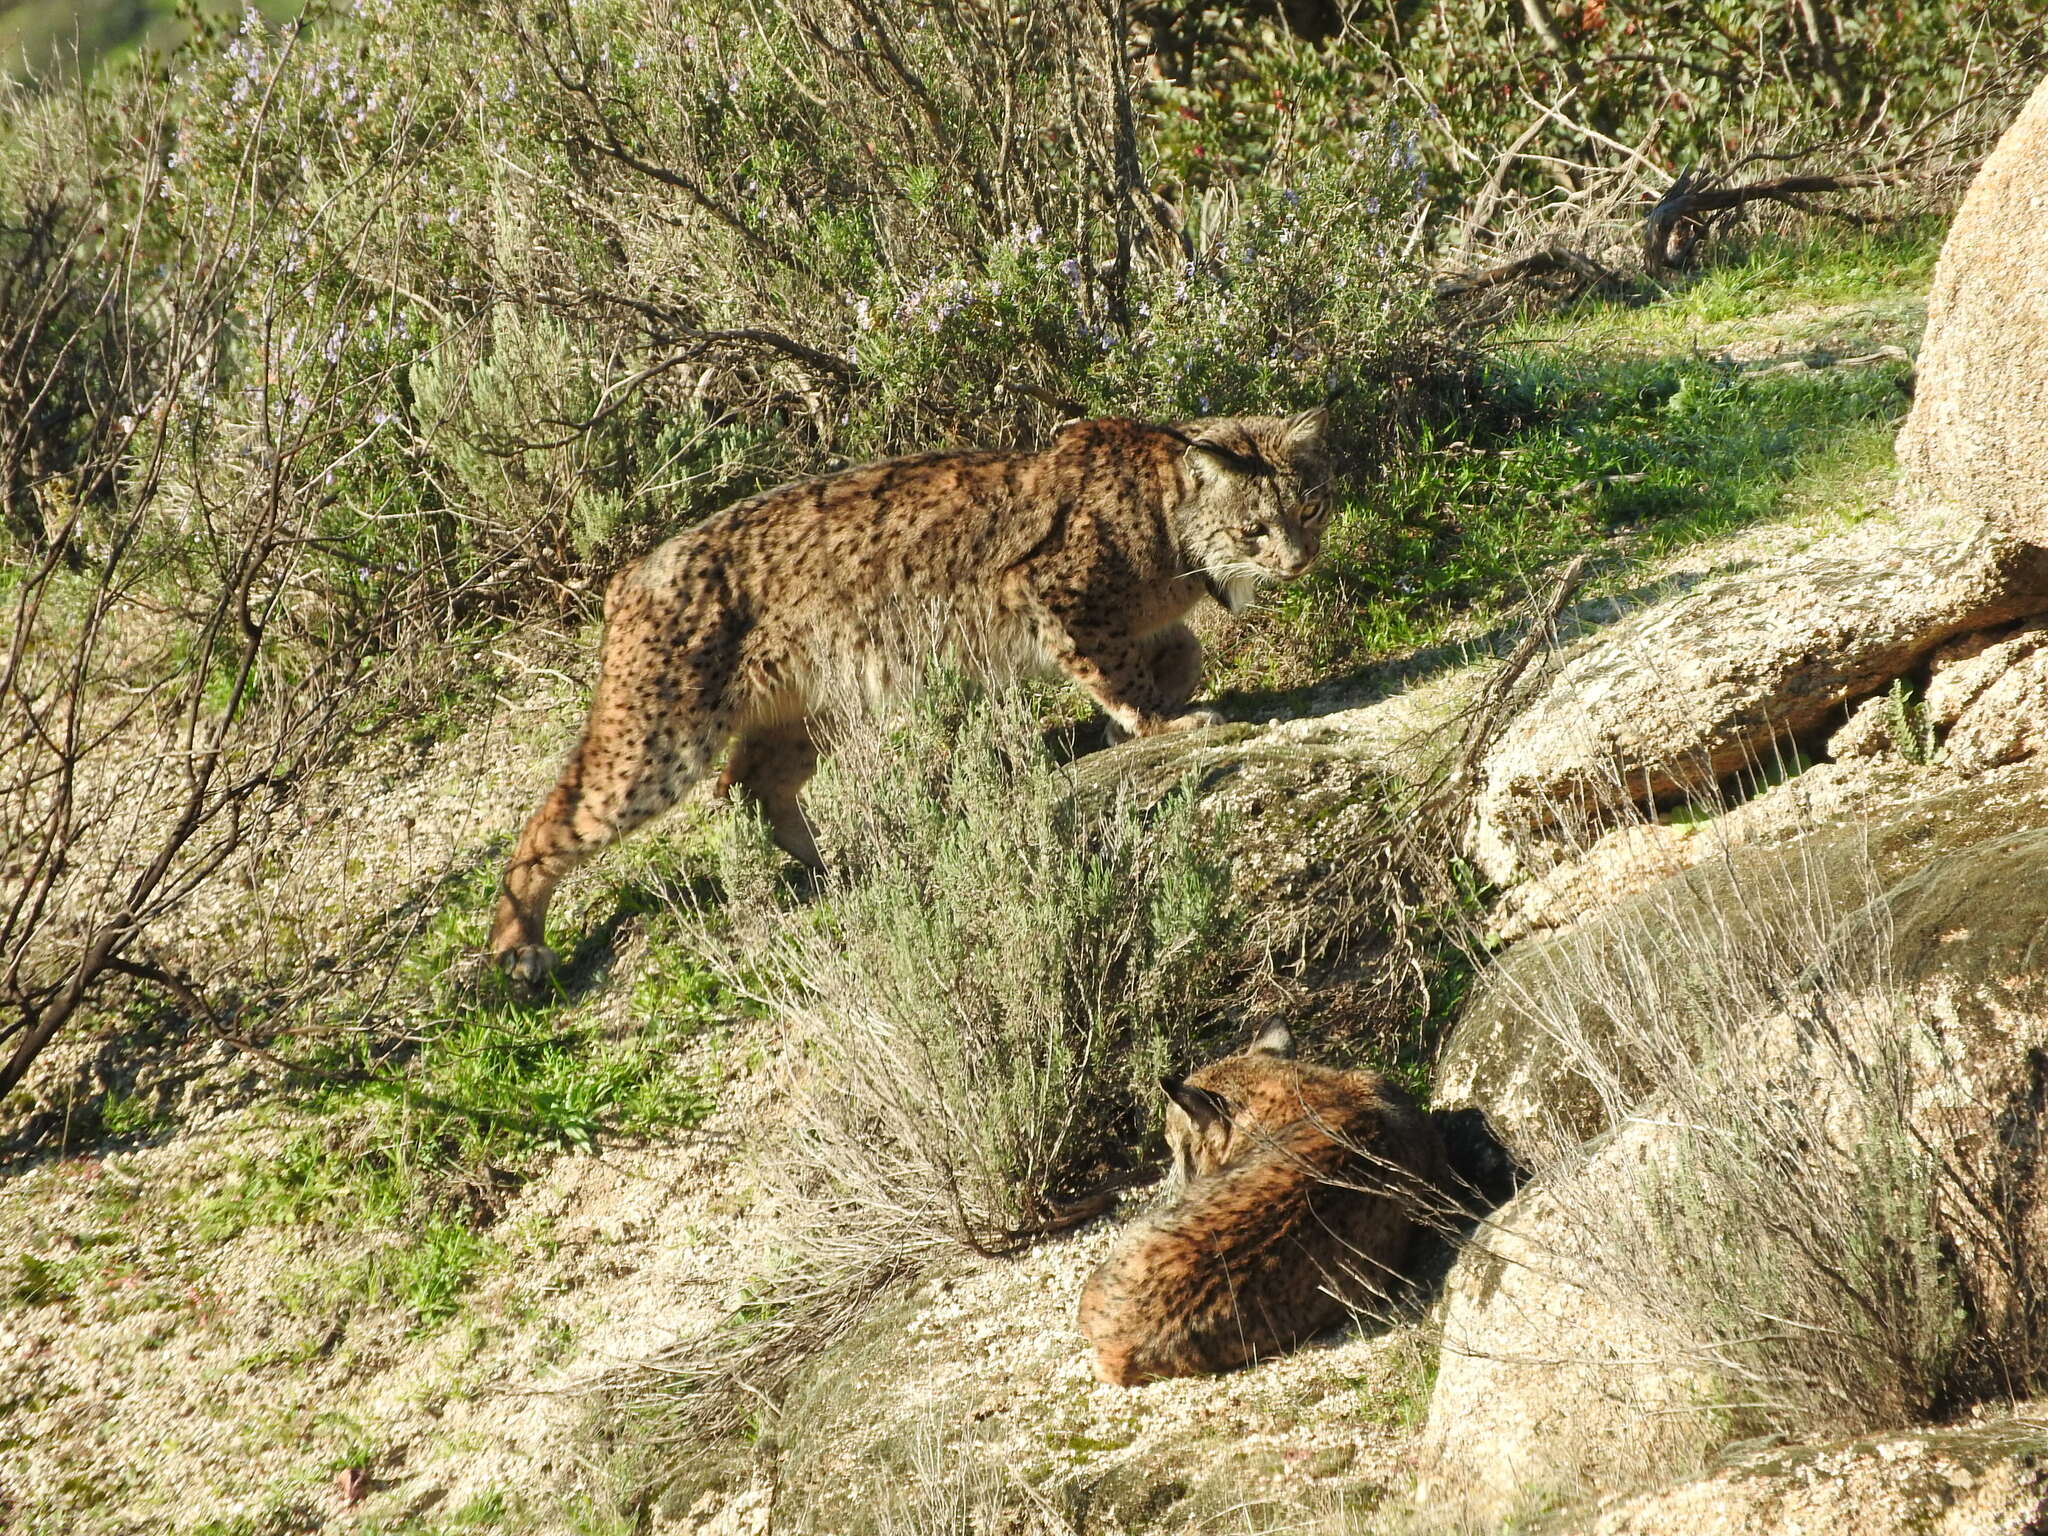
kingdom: Animalia
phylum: Chordata
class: Mammalia
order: Carnivora
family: Felidae
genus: Lynx
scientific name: Lynx pardinus
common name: Spanish lynx
